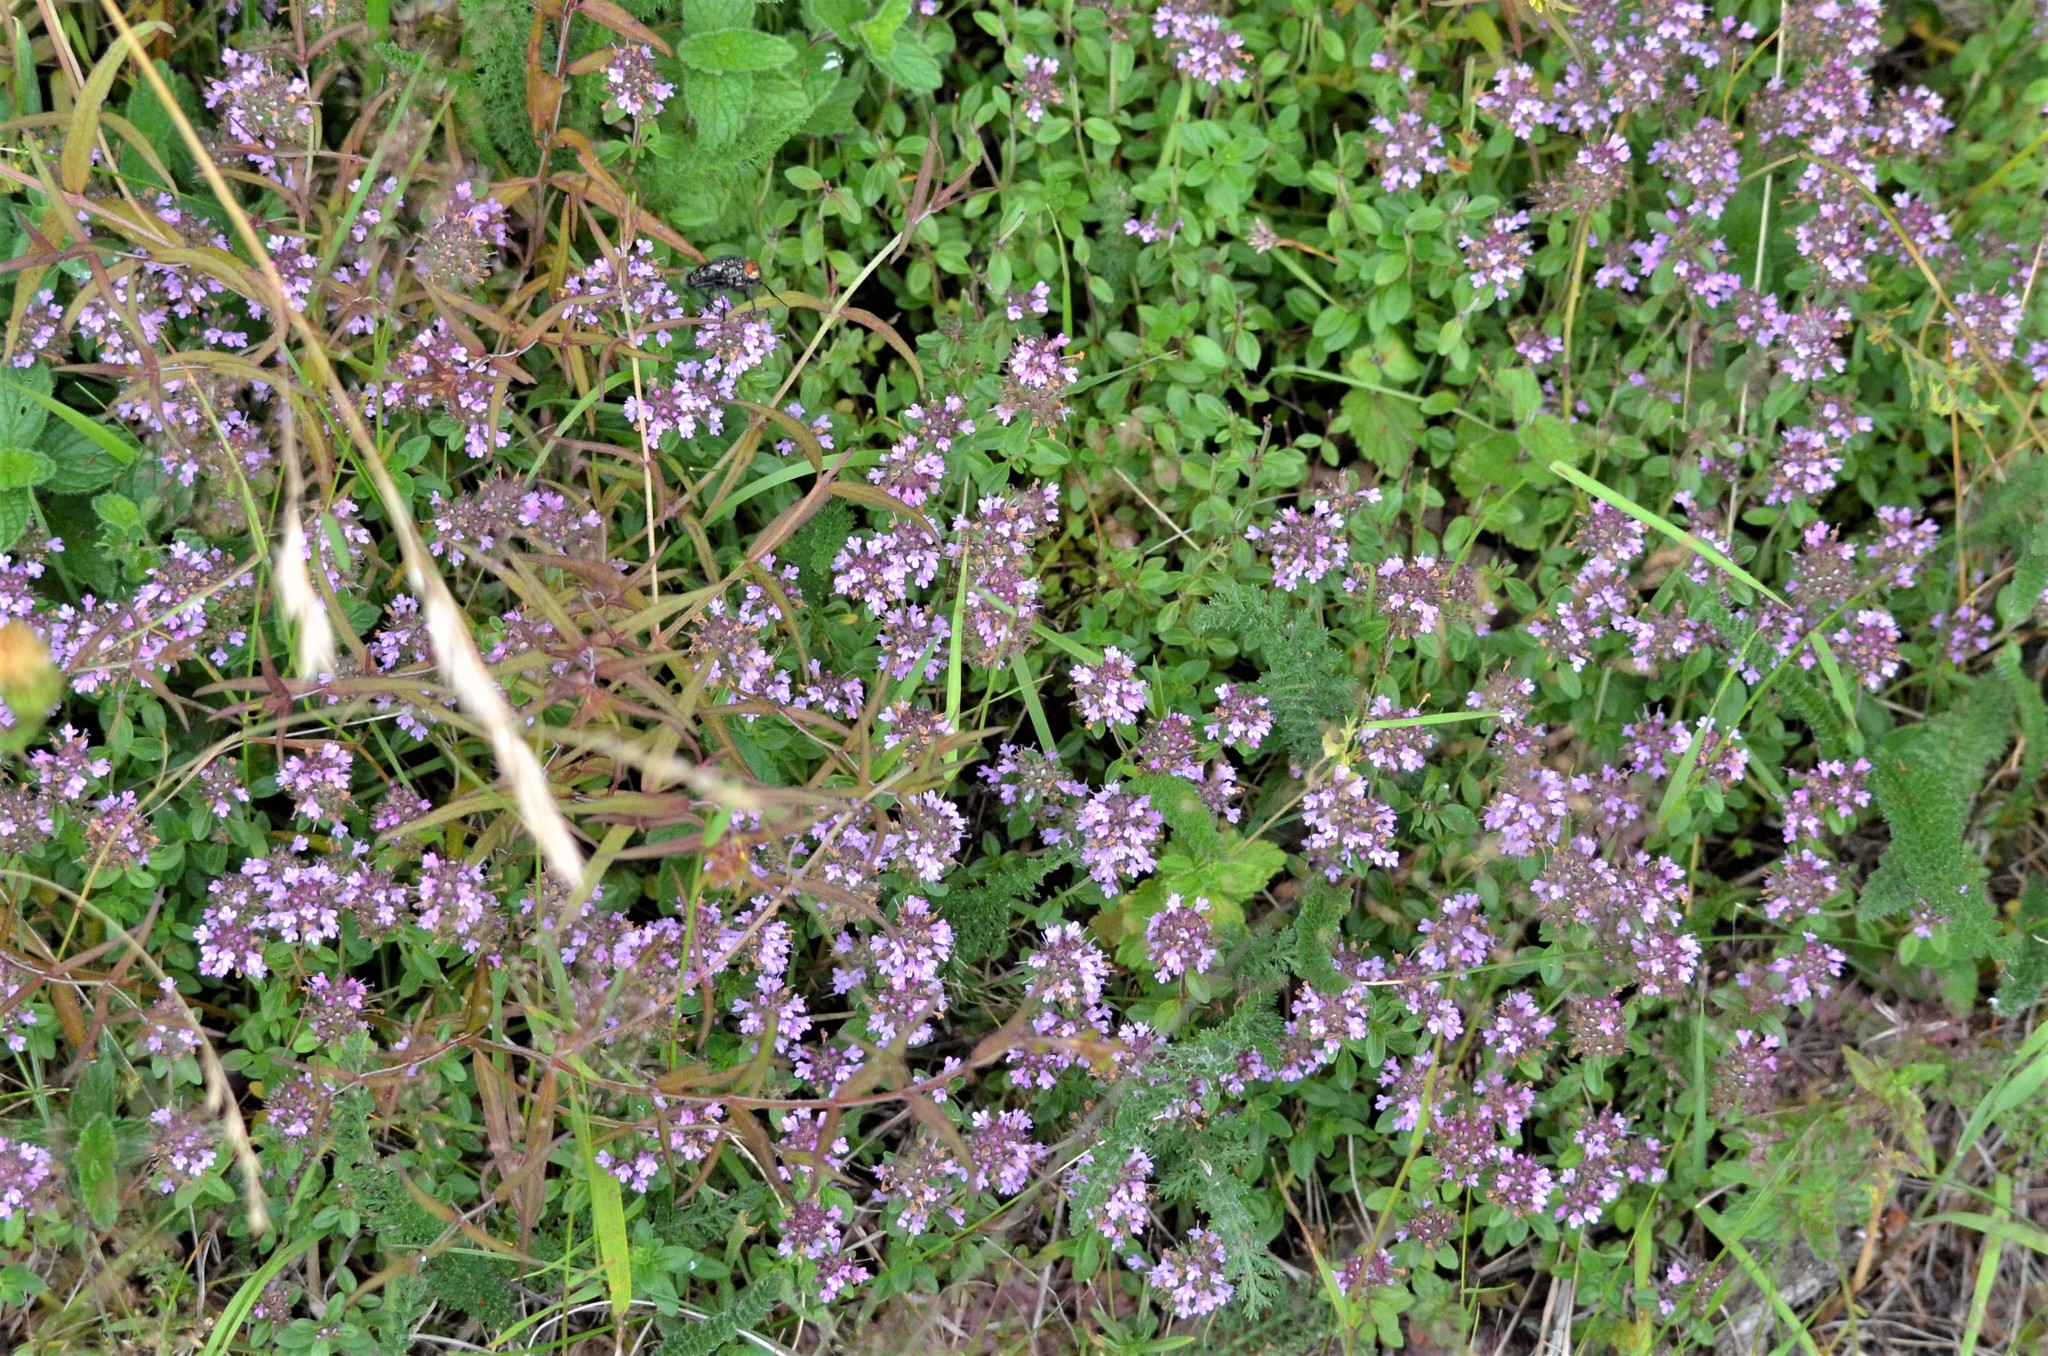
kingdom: Plantae
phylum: Tracheophyta
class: Magnoliopsida
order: Lamiales
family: Lamiaceae
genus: Thymus
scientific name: Thymus pulegioides
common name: Large thyme
